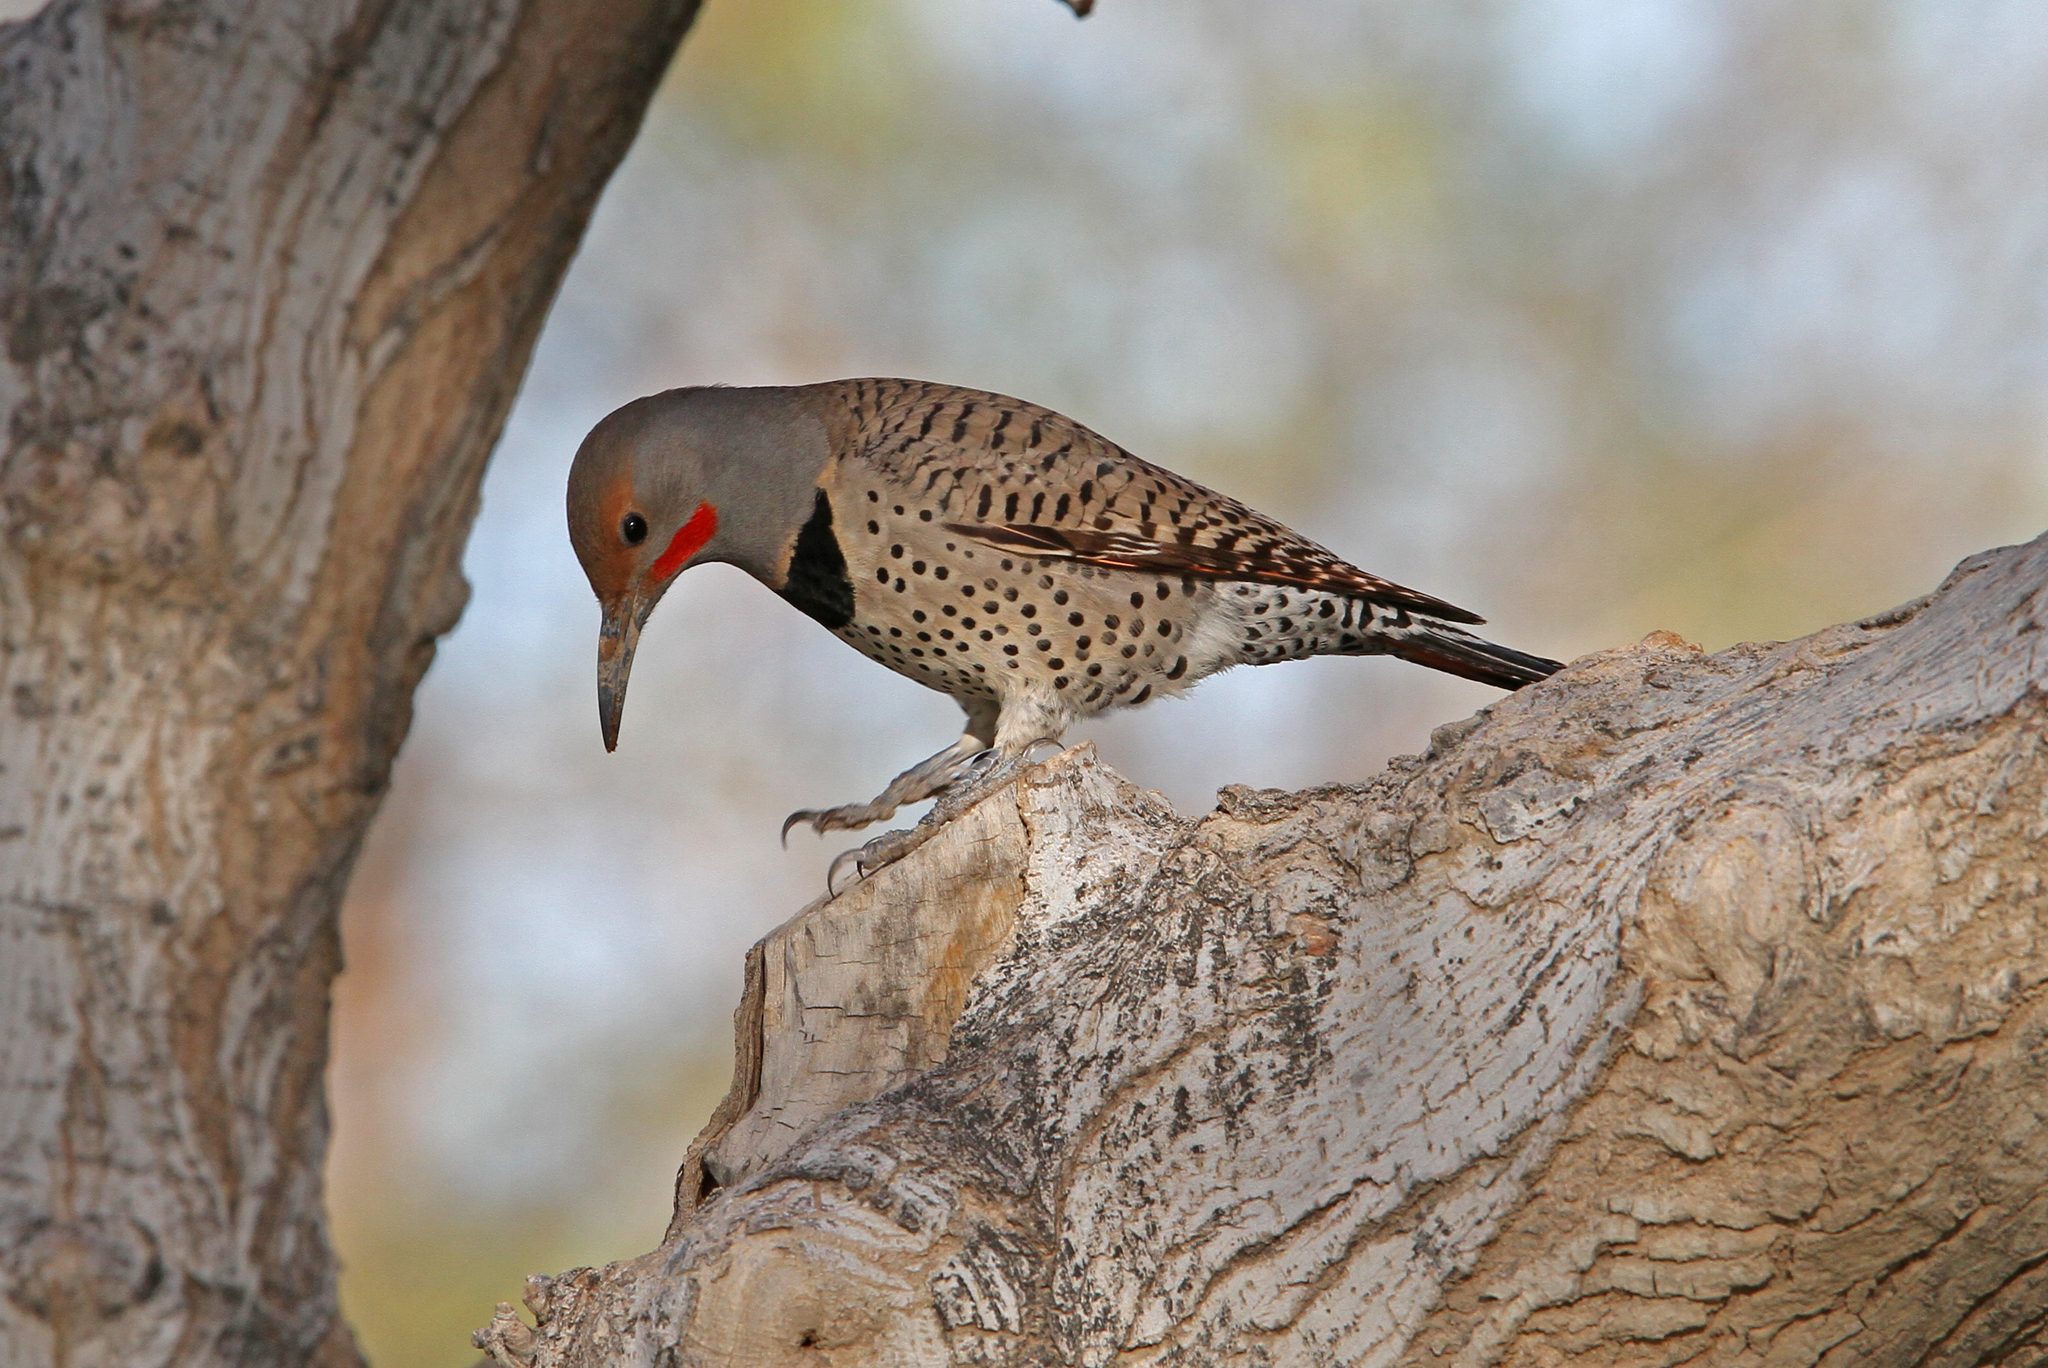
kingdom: Animalia
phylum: Chordata
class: Aves
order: Piciformes
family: Picidae
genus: Colaptes
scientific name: Colaptes auratus
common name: Northern flicker
